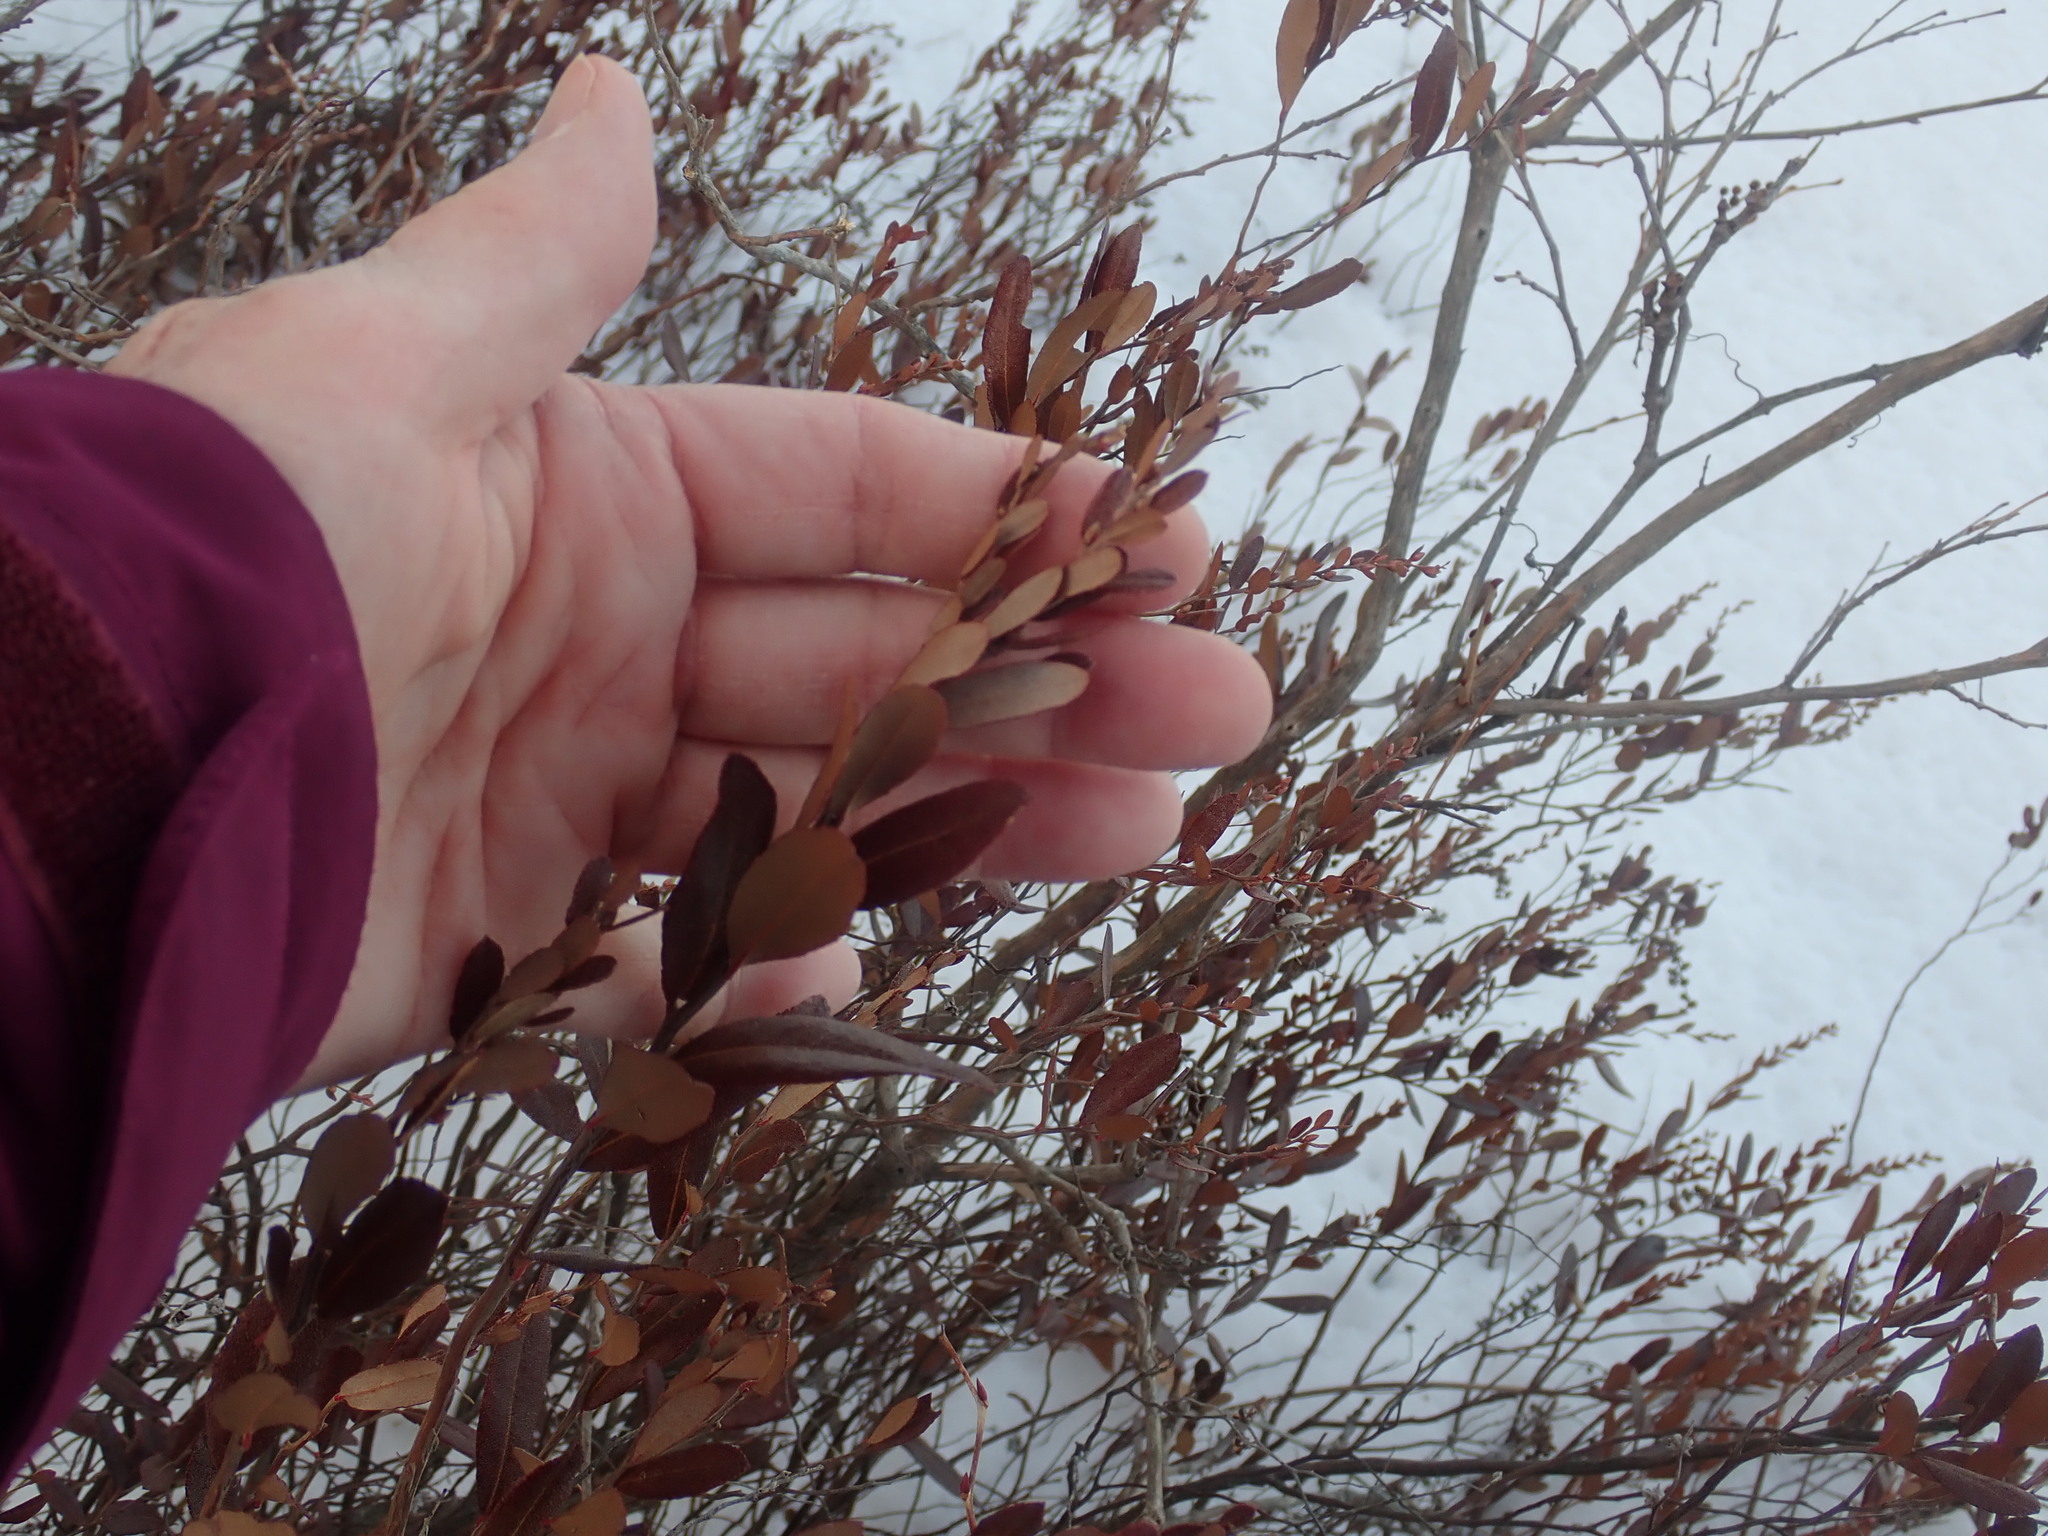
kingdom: Plantae
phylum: Tracheophyta
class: Magnoliopsida
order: Ericales
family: Ericaceae
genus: Chamaedaphne
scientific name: Chamaedaphne calyculata
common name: Leatherleaf
